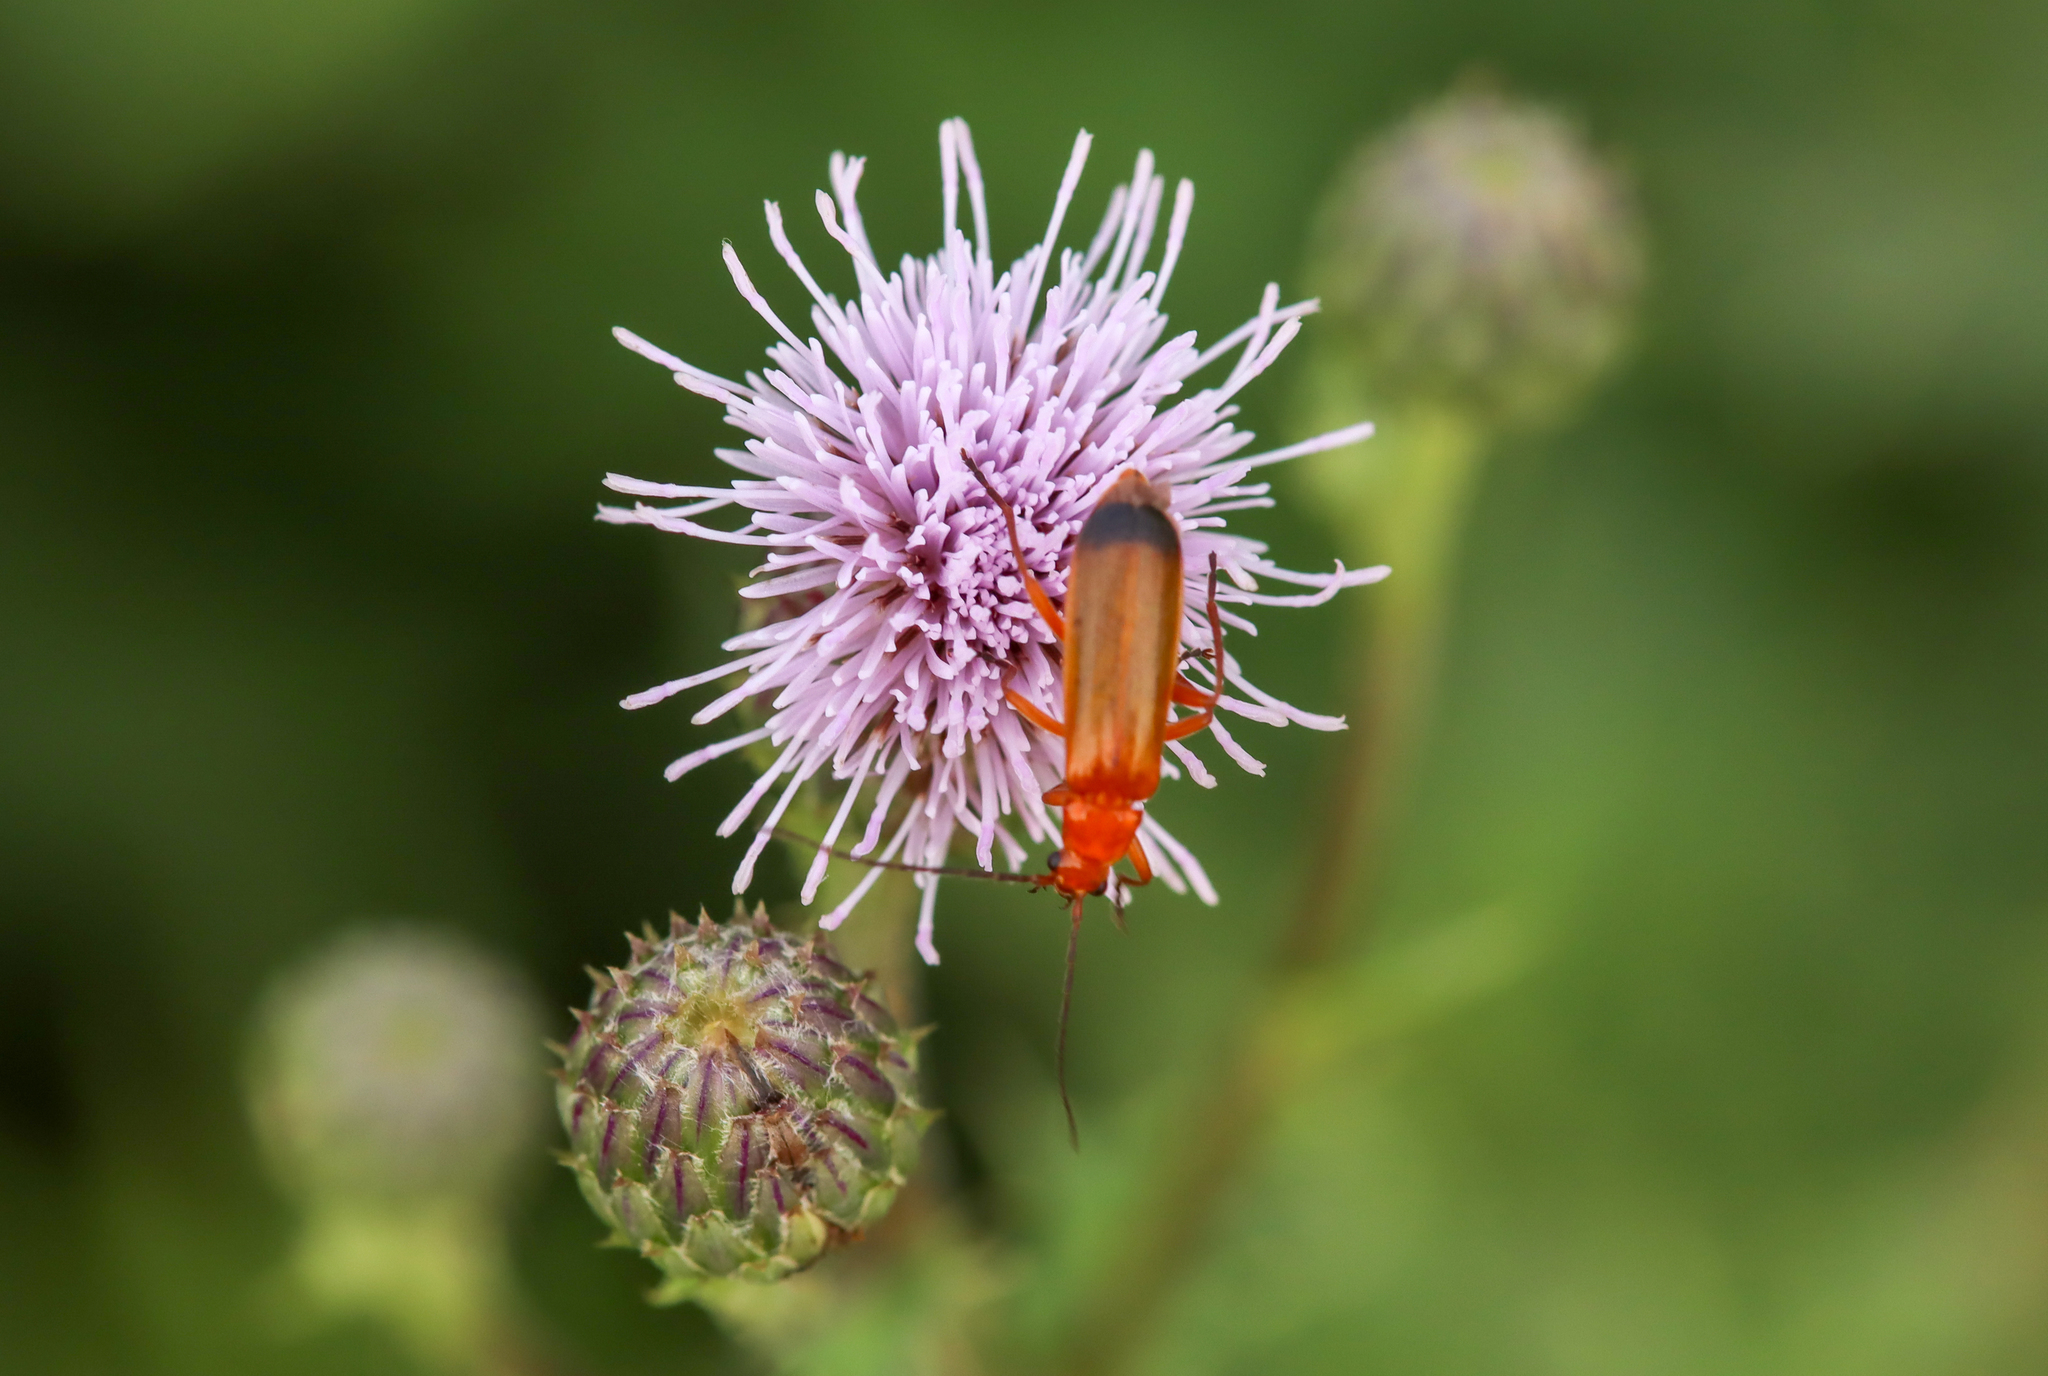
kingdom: Animalia
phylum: Arthropoda
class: Insecta
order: Coleoptera
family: Cantharidae
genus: Rhagonycha
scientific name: Rhagonycha fulva
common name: Common red soldier beetle
